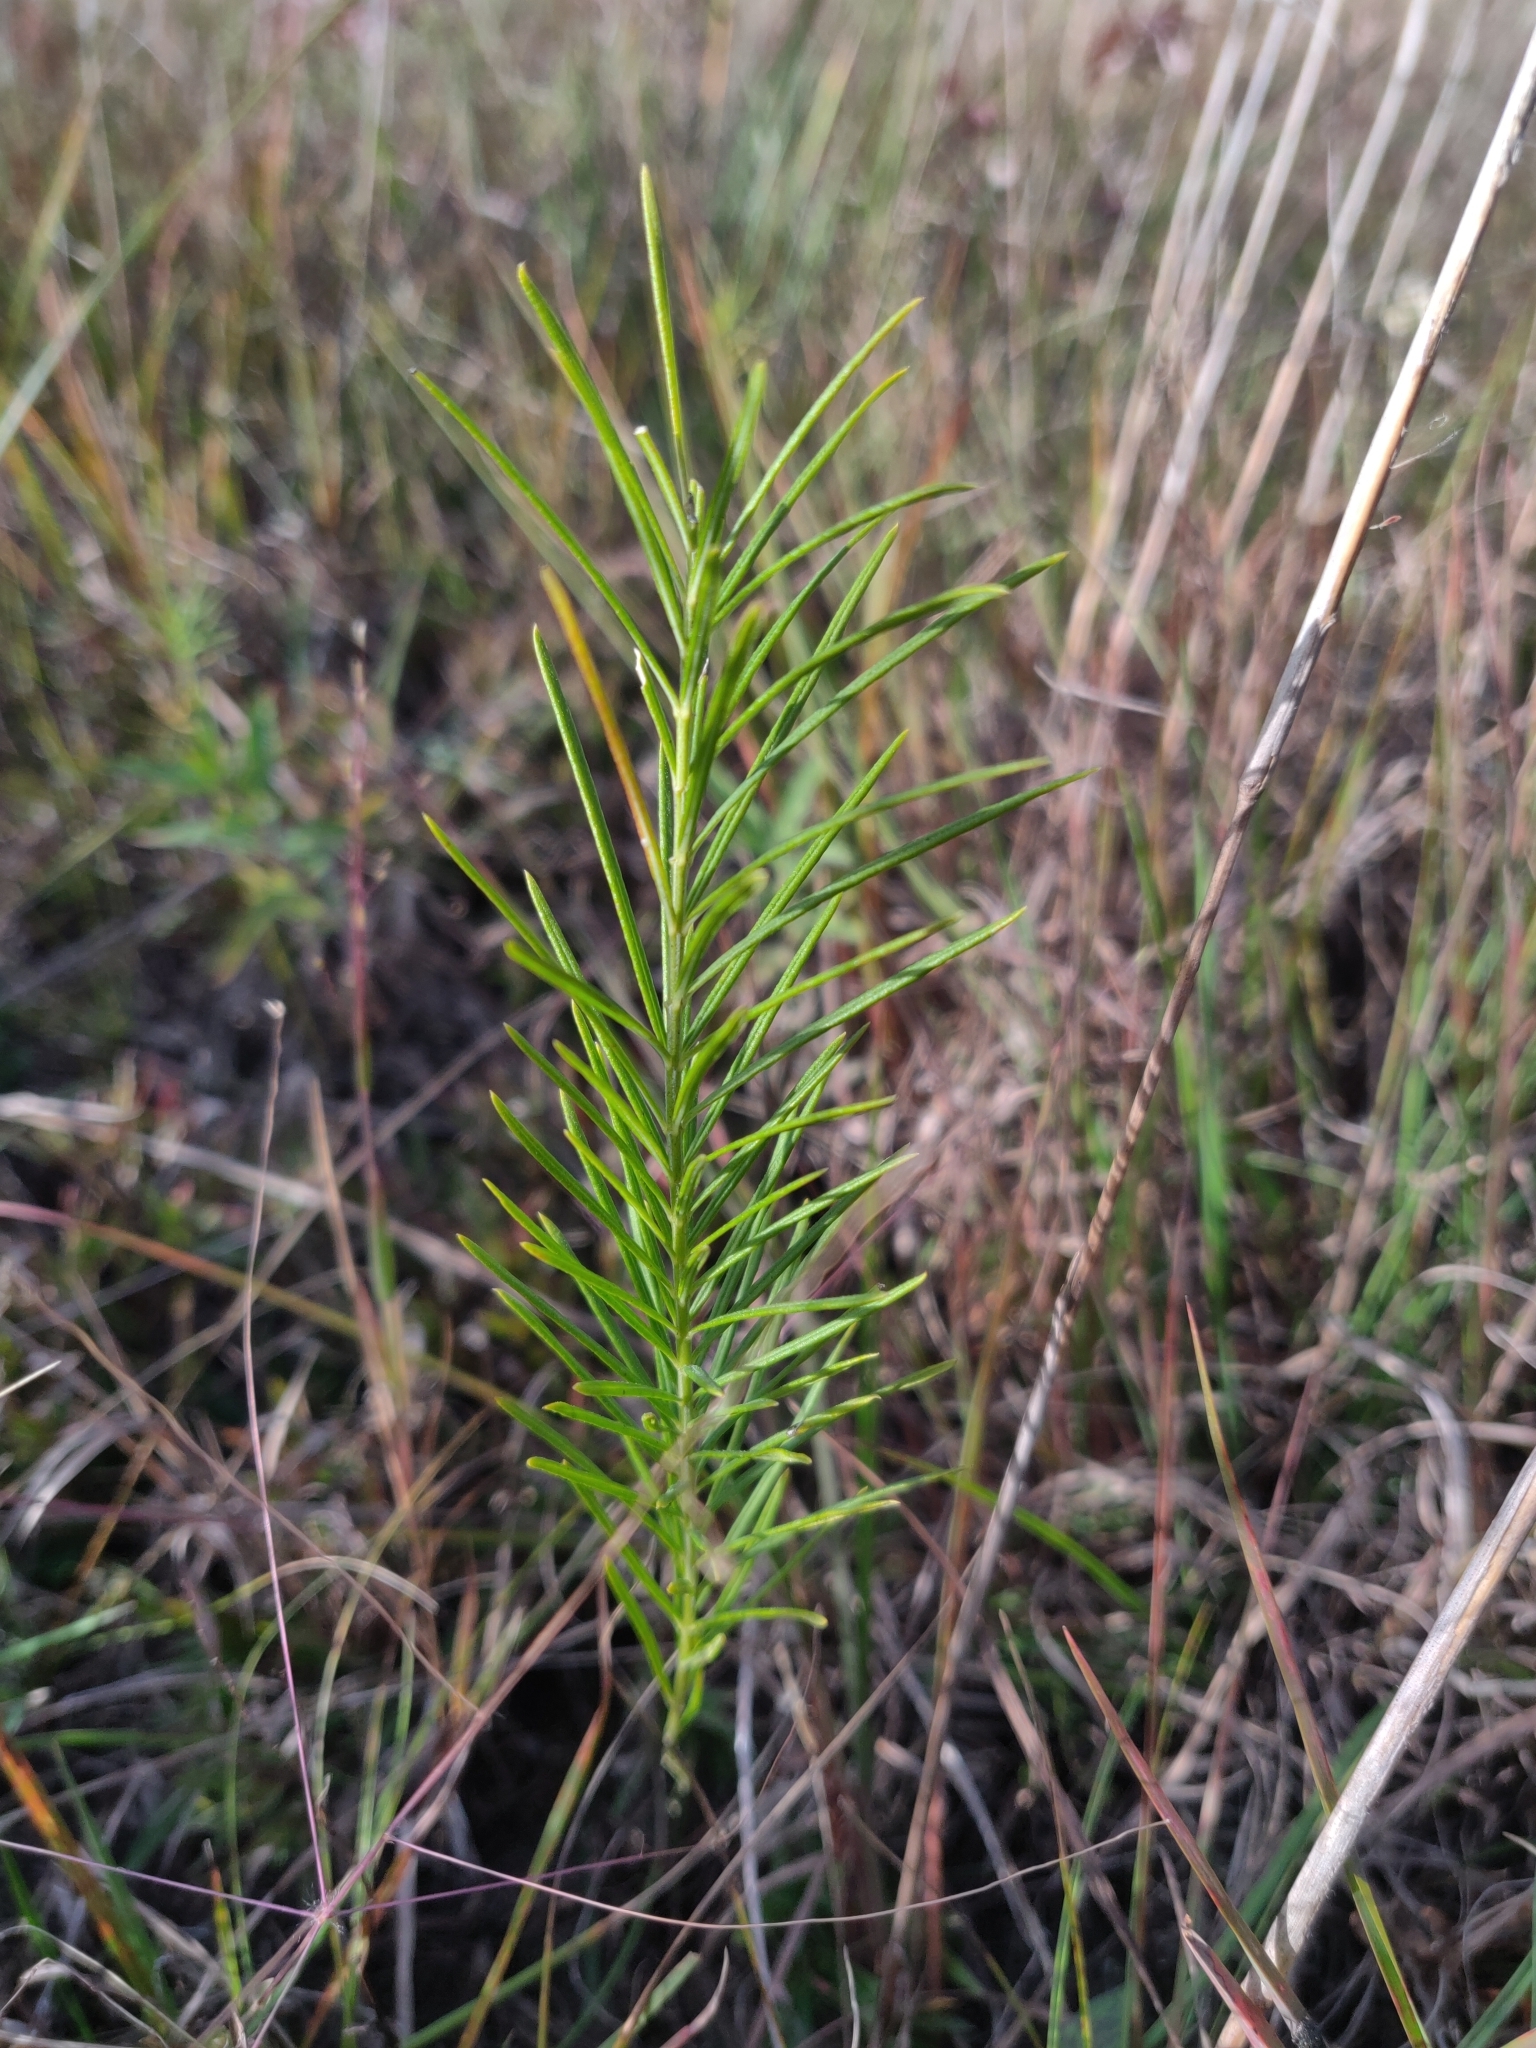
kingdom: Plantae
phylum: Tracheophyta
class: Magnoliopsida
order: Gentianales
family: Apocynaceae
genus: Asclepias
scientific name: Asclepias verticillata
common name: Eastern whorled milkweed
